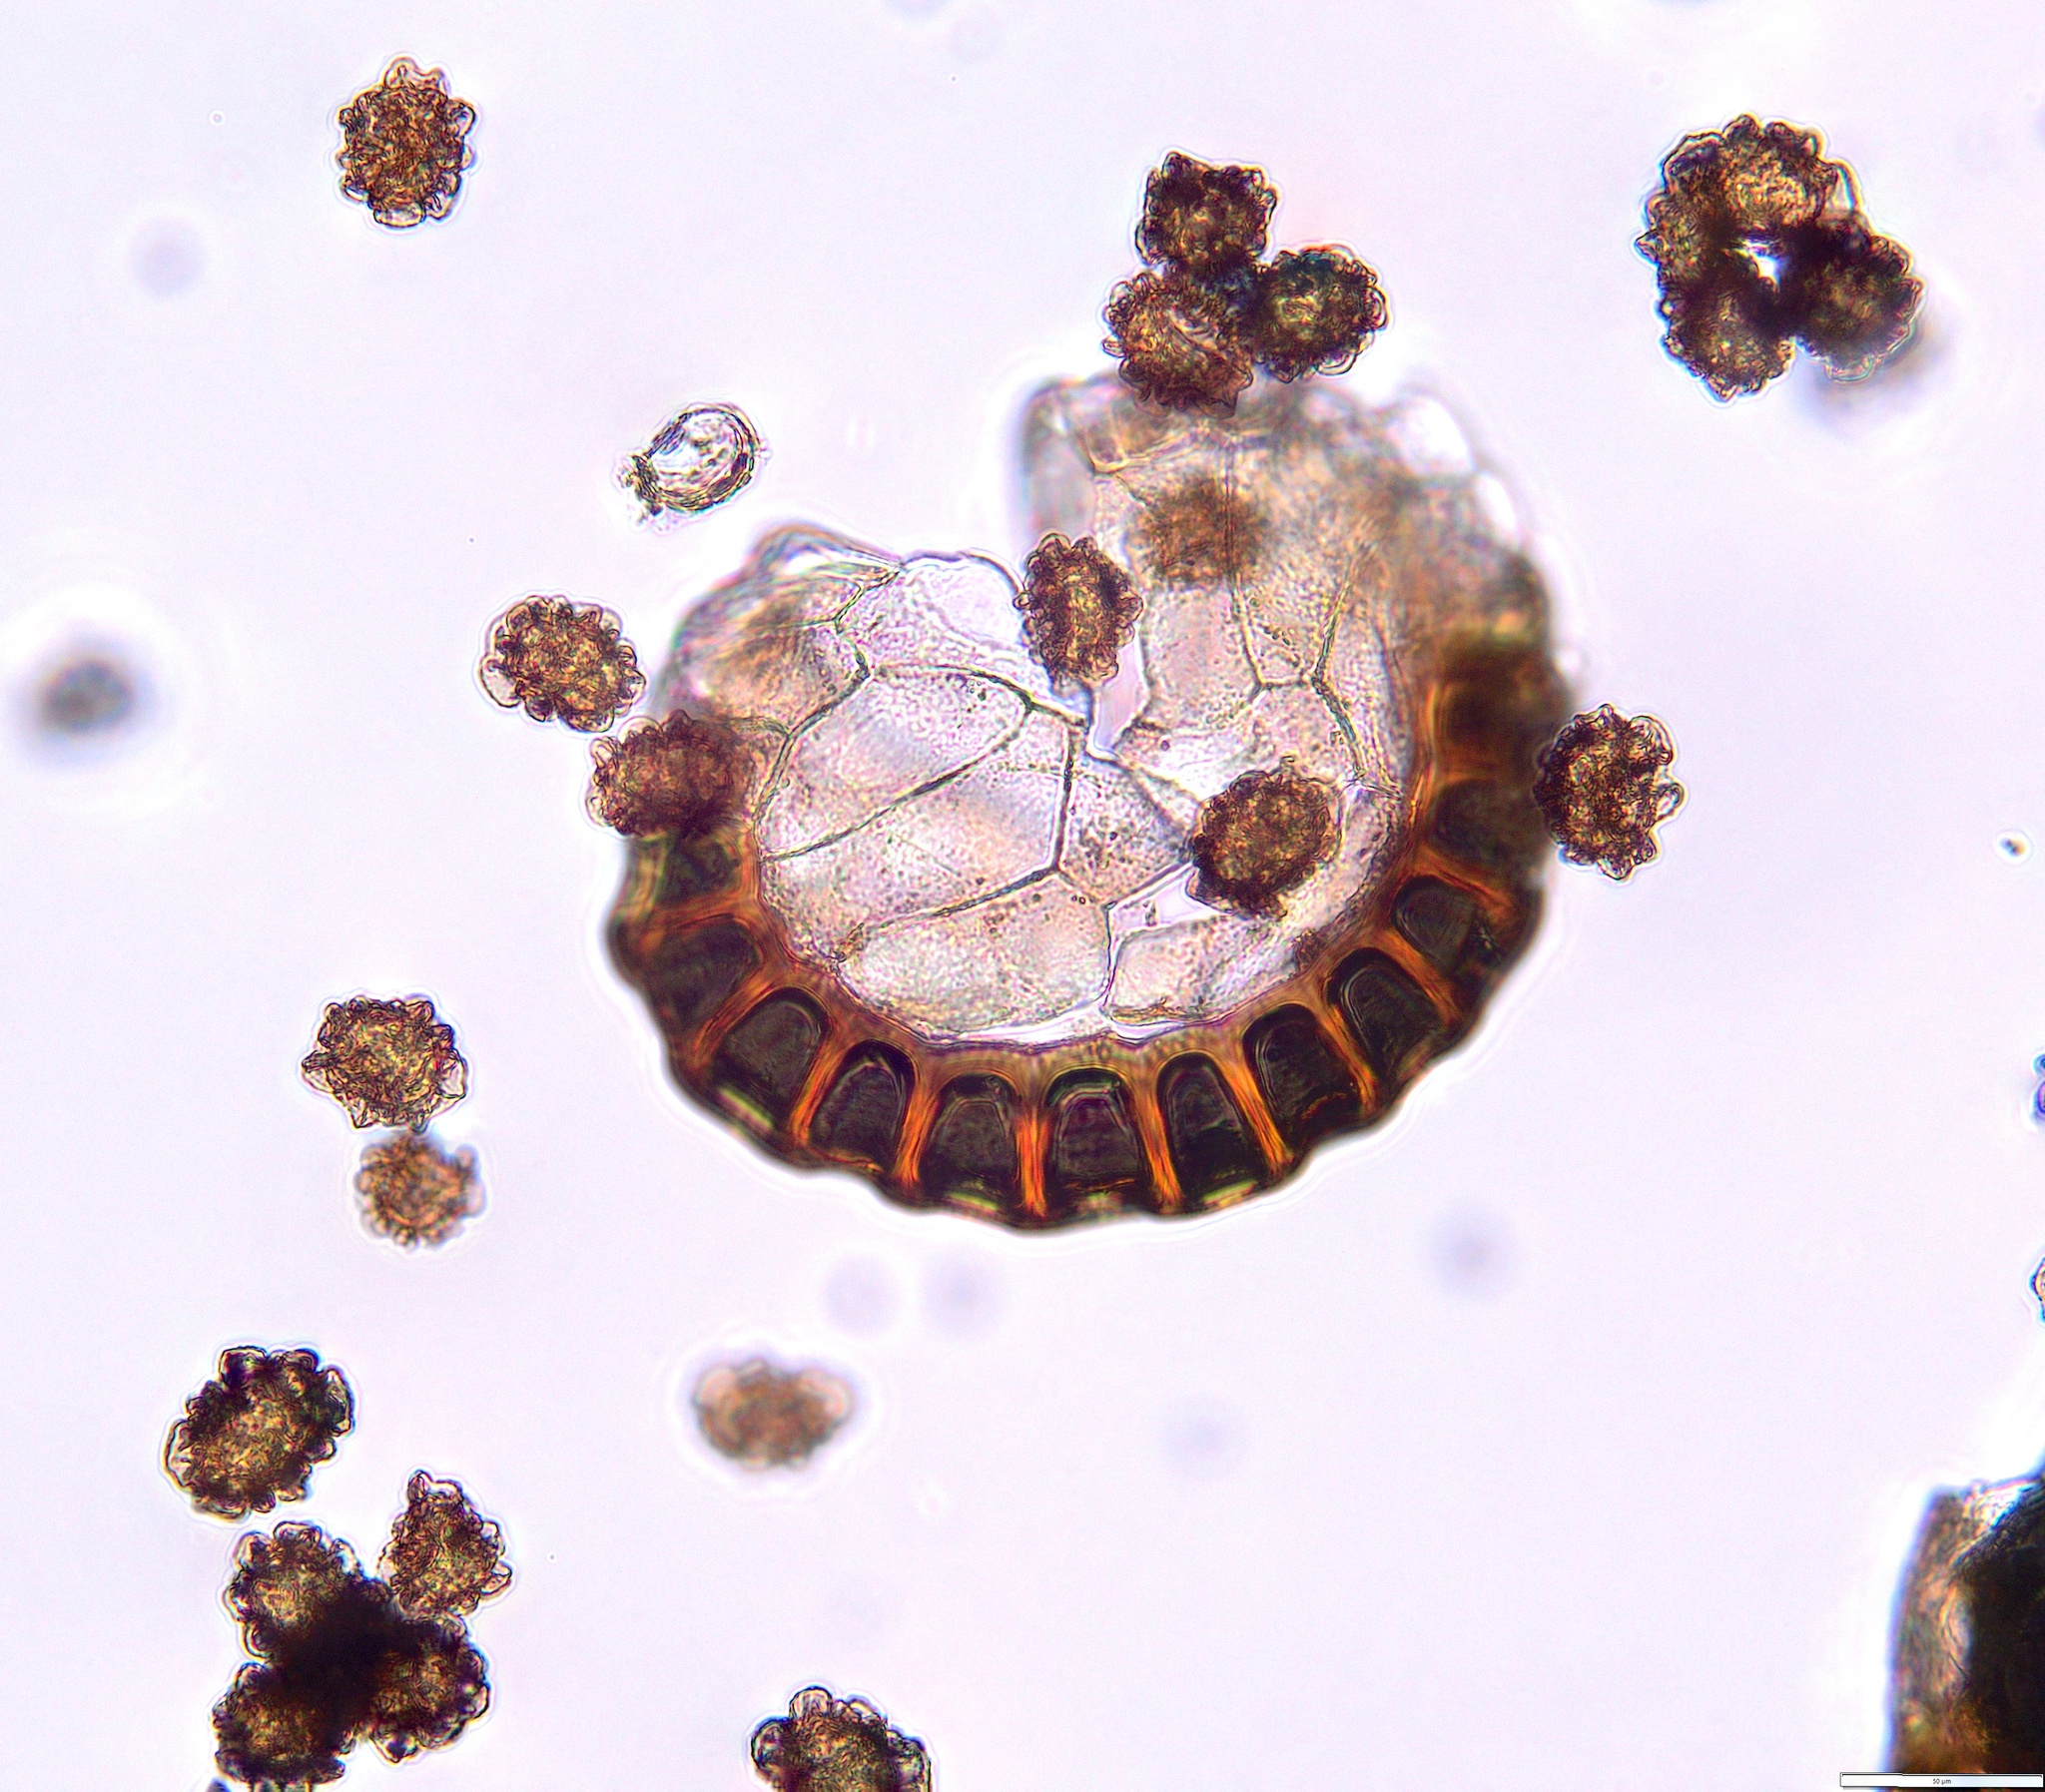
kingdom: Plantae
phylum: Tracheophyta
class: Polypodiopsida
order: Polypodiales
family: Dryopteridaceae
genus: Parapolystichum
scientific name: Parapolystichum glabellum
